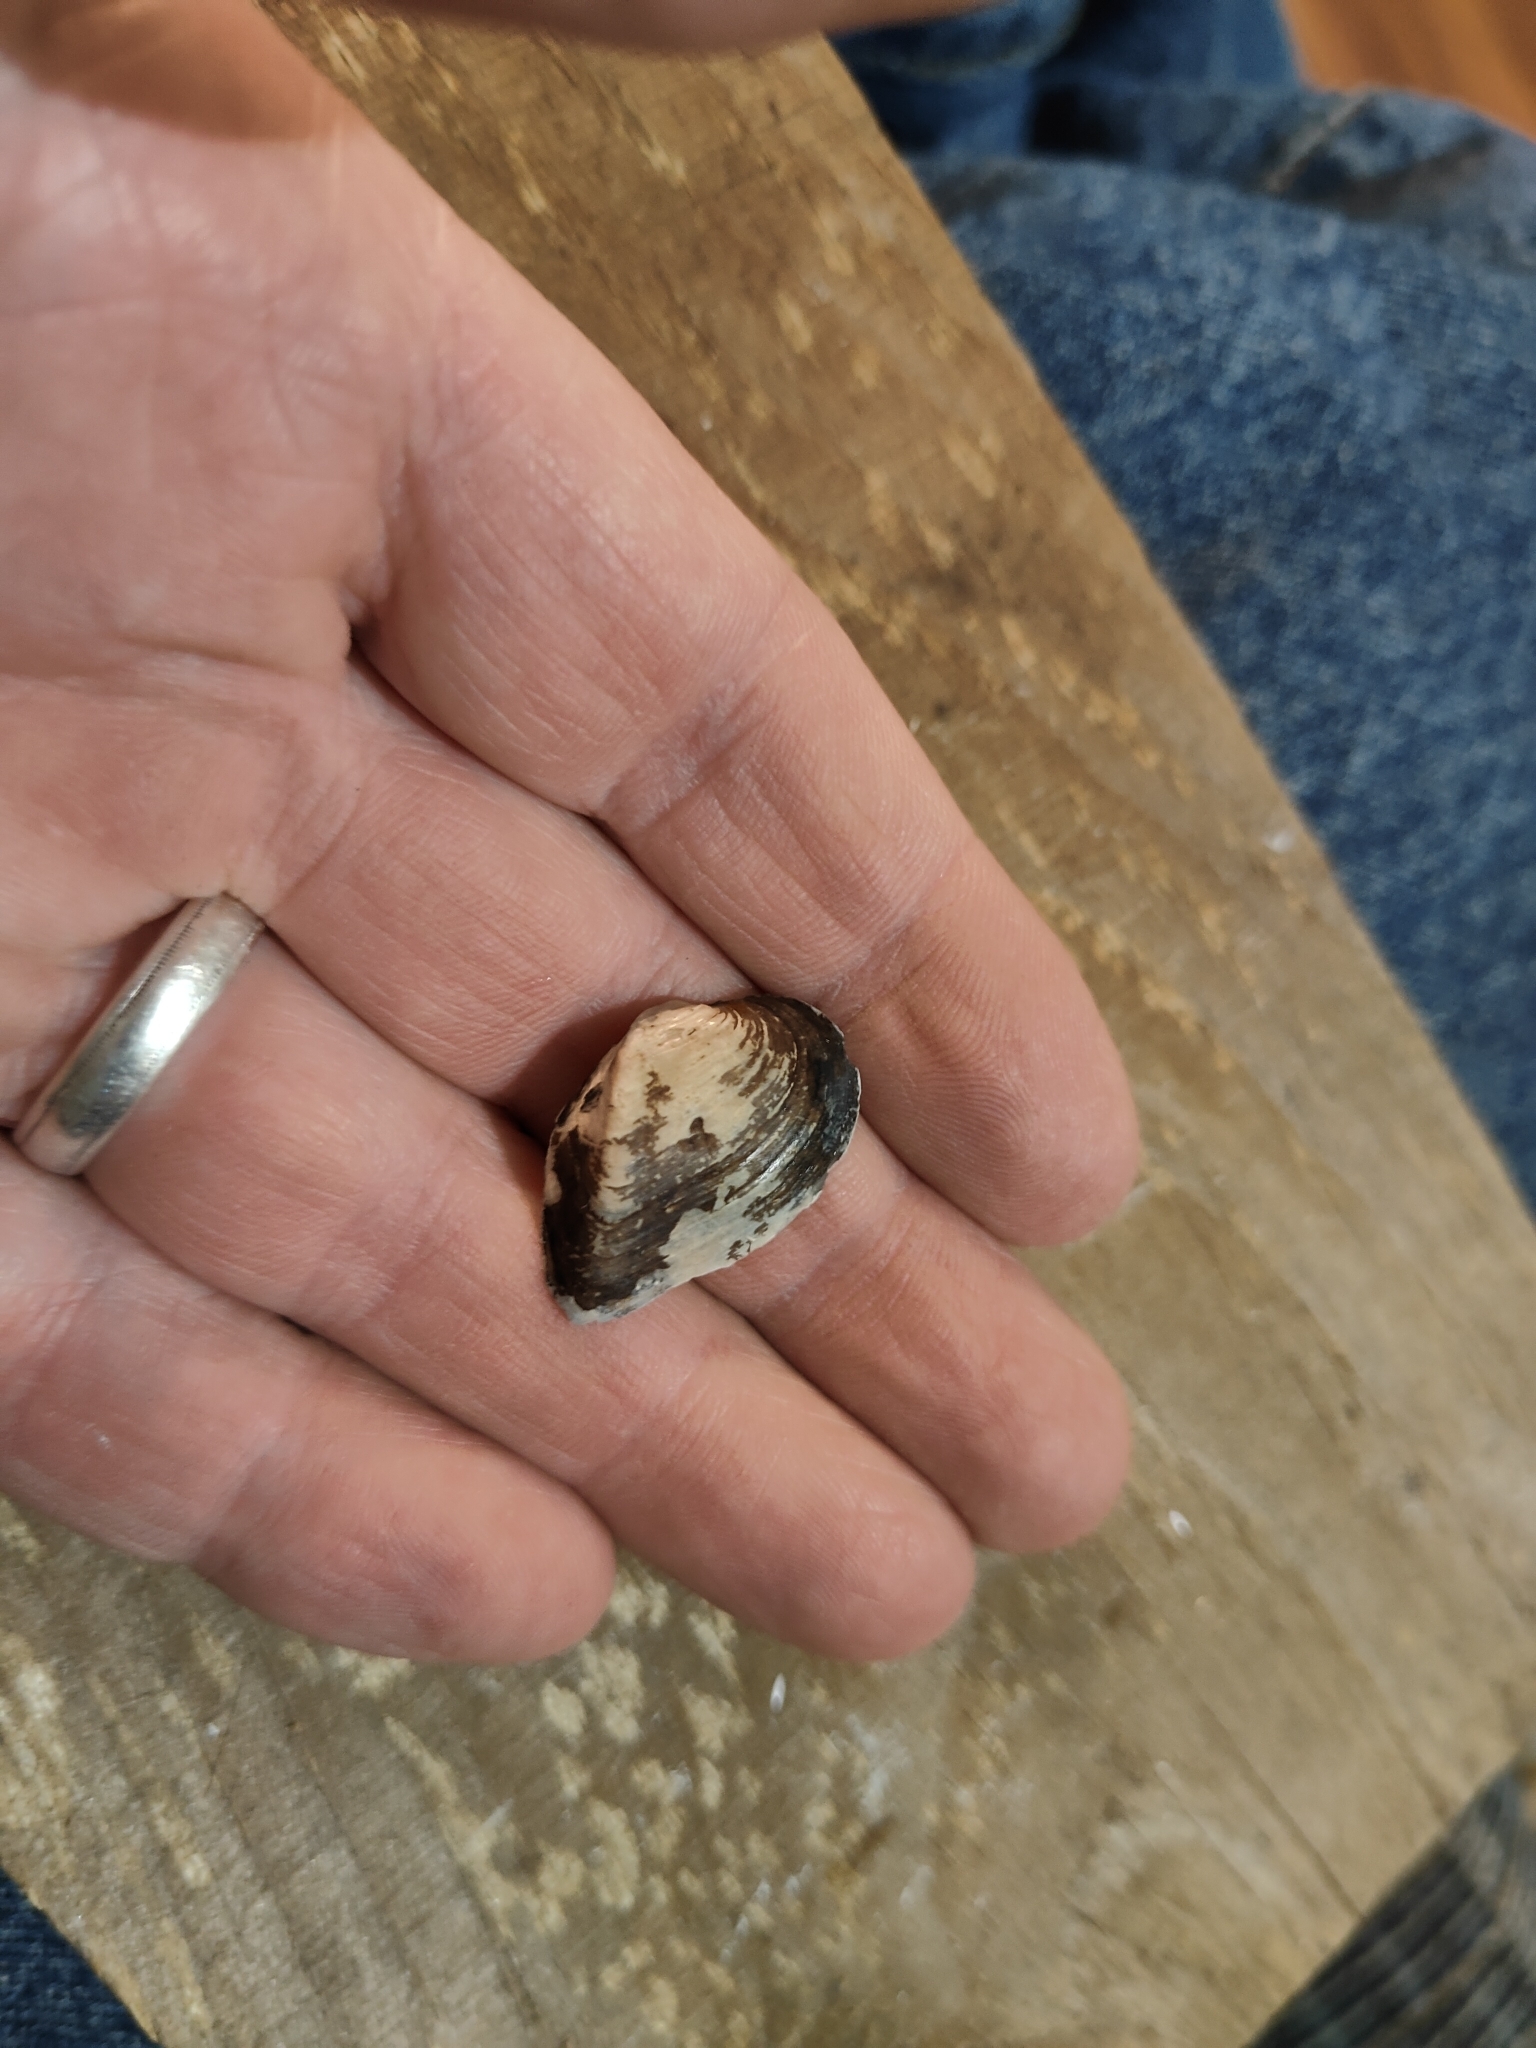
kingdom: Animalia
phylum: Mollusca
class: Bivalvia
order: Unionida
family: Unionidae
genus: Truncilla
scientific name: Truncilla truncata
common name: Deertoe
